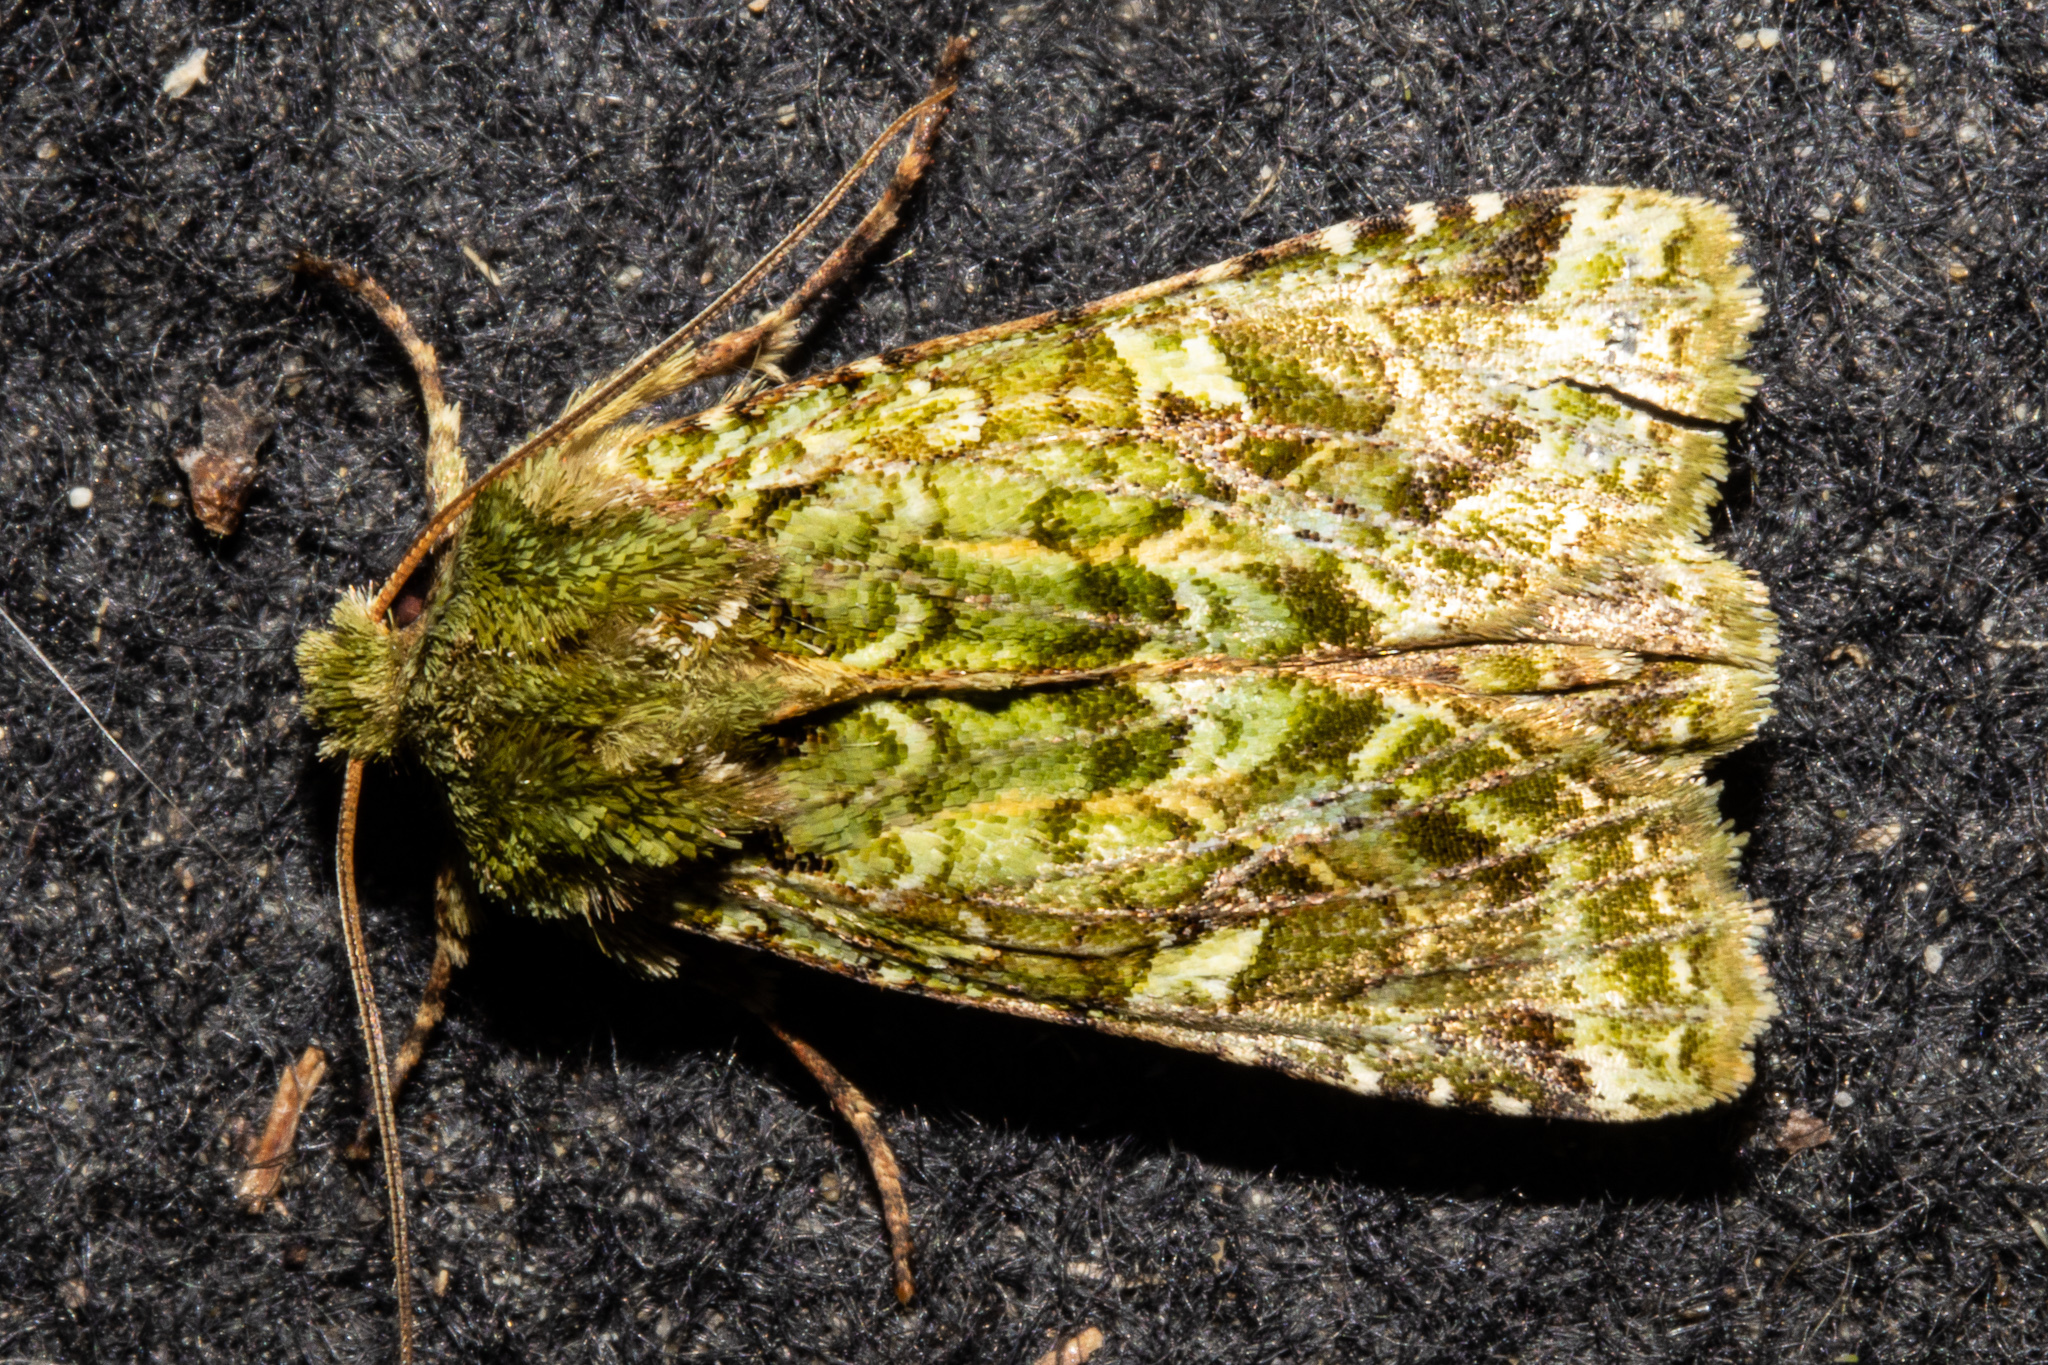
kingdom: Animalia
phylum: Arthropoda
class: Insecta
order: Lepidoptera
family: Noctuidae
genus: Feredayia
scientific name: Feredayia grammosa
